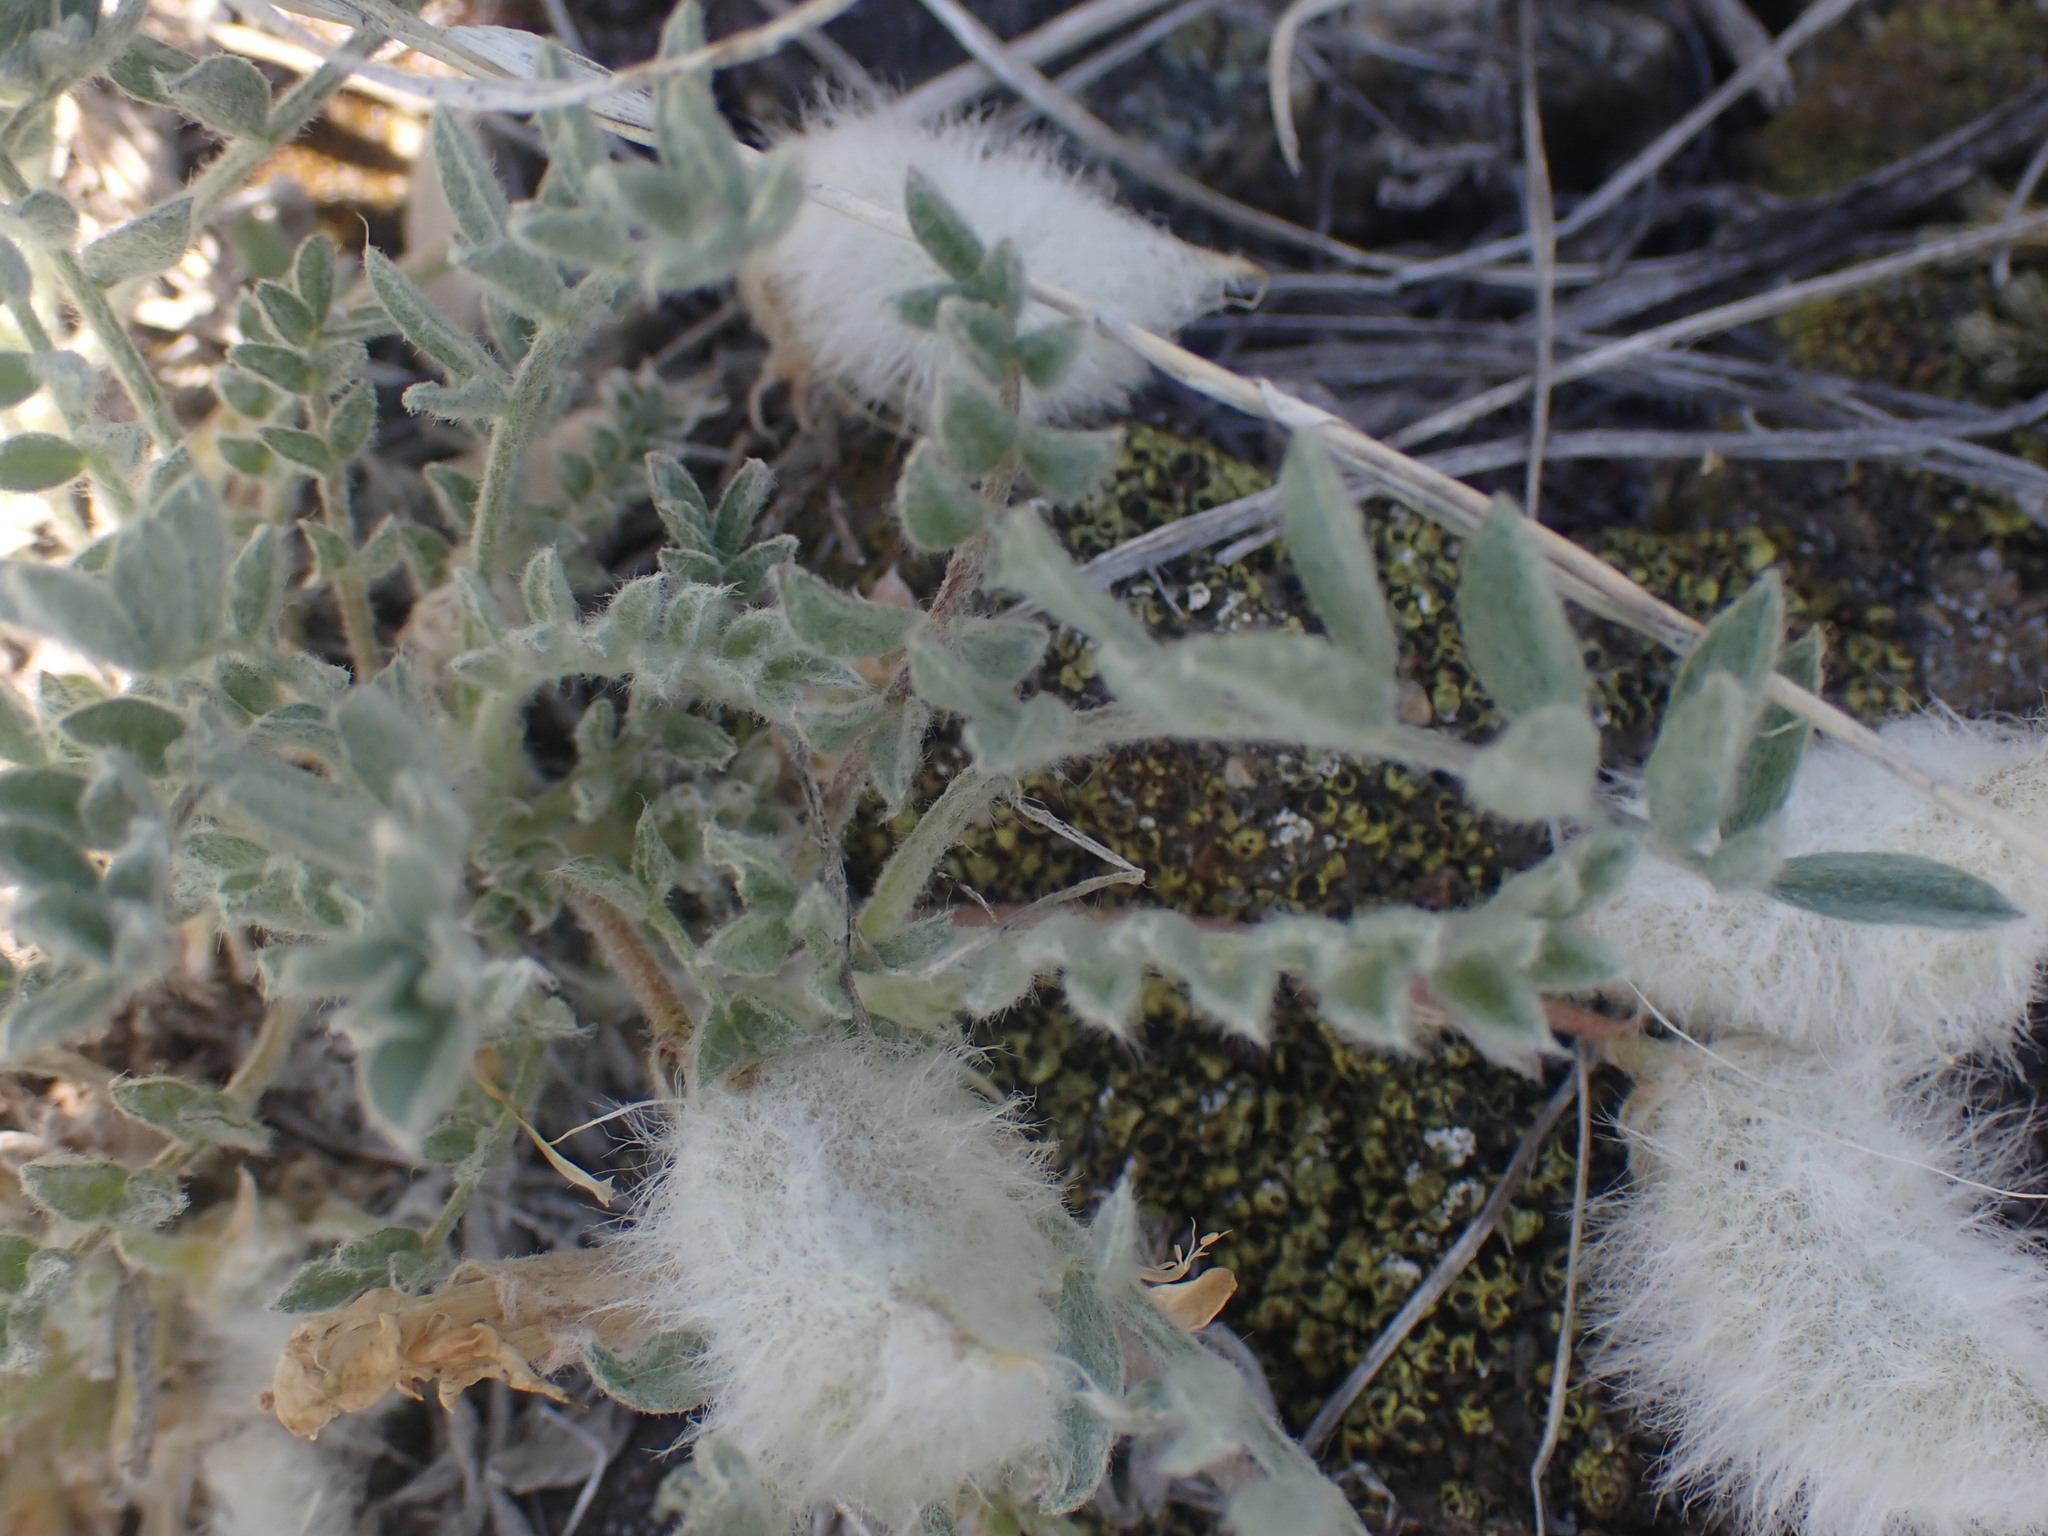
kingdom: Plantae
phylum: Tracheophyta
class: Magnoliopsida
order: Fabales
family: Fabaceae
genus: Astragalus
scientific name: Astragalus purshii
